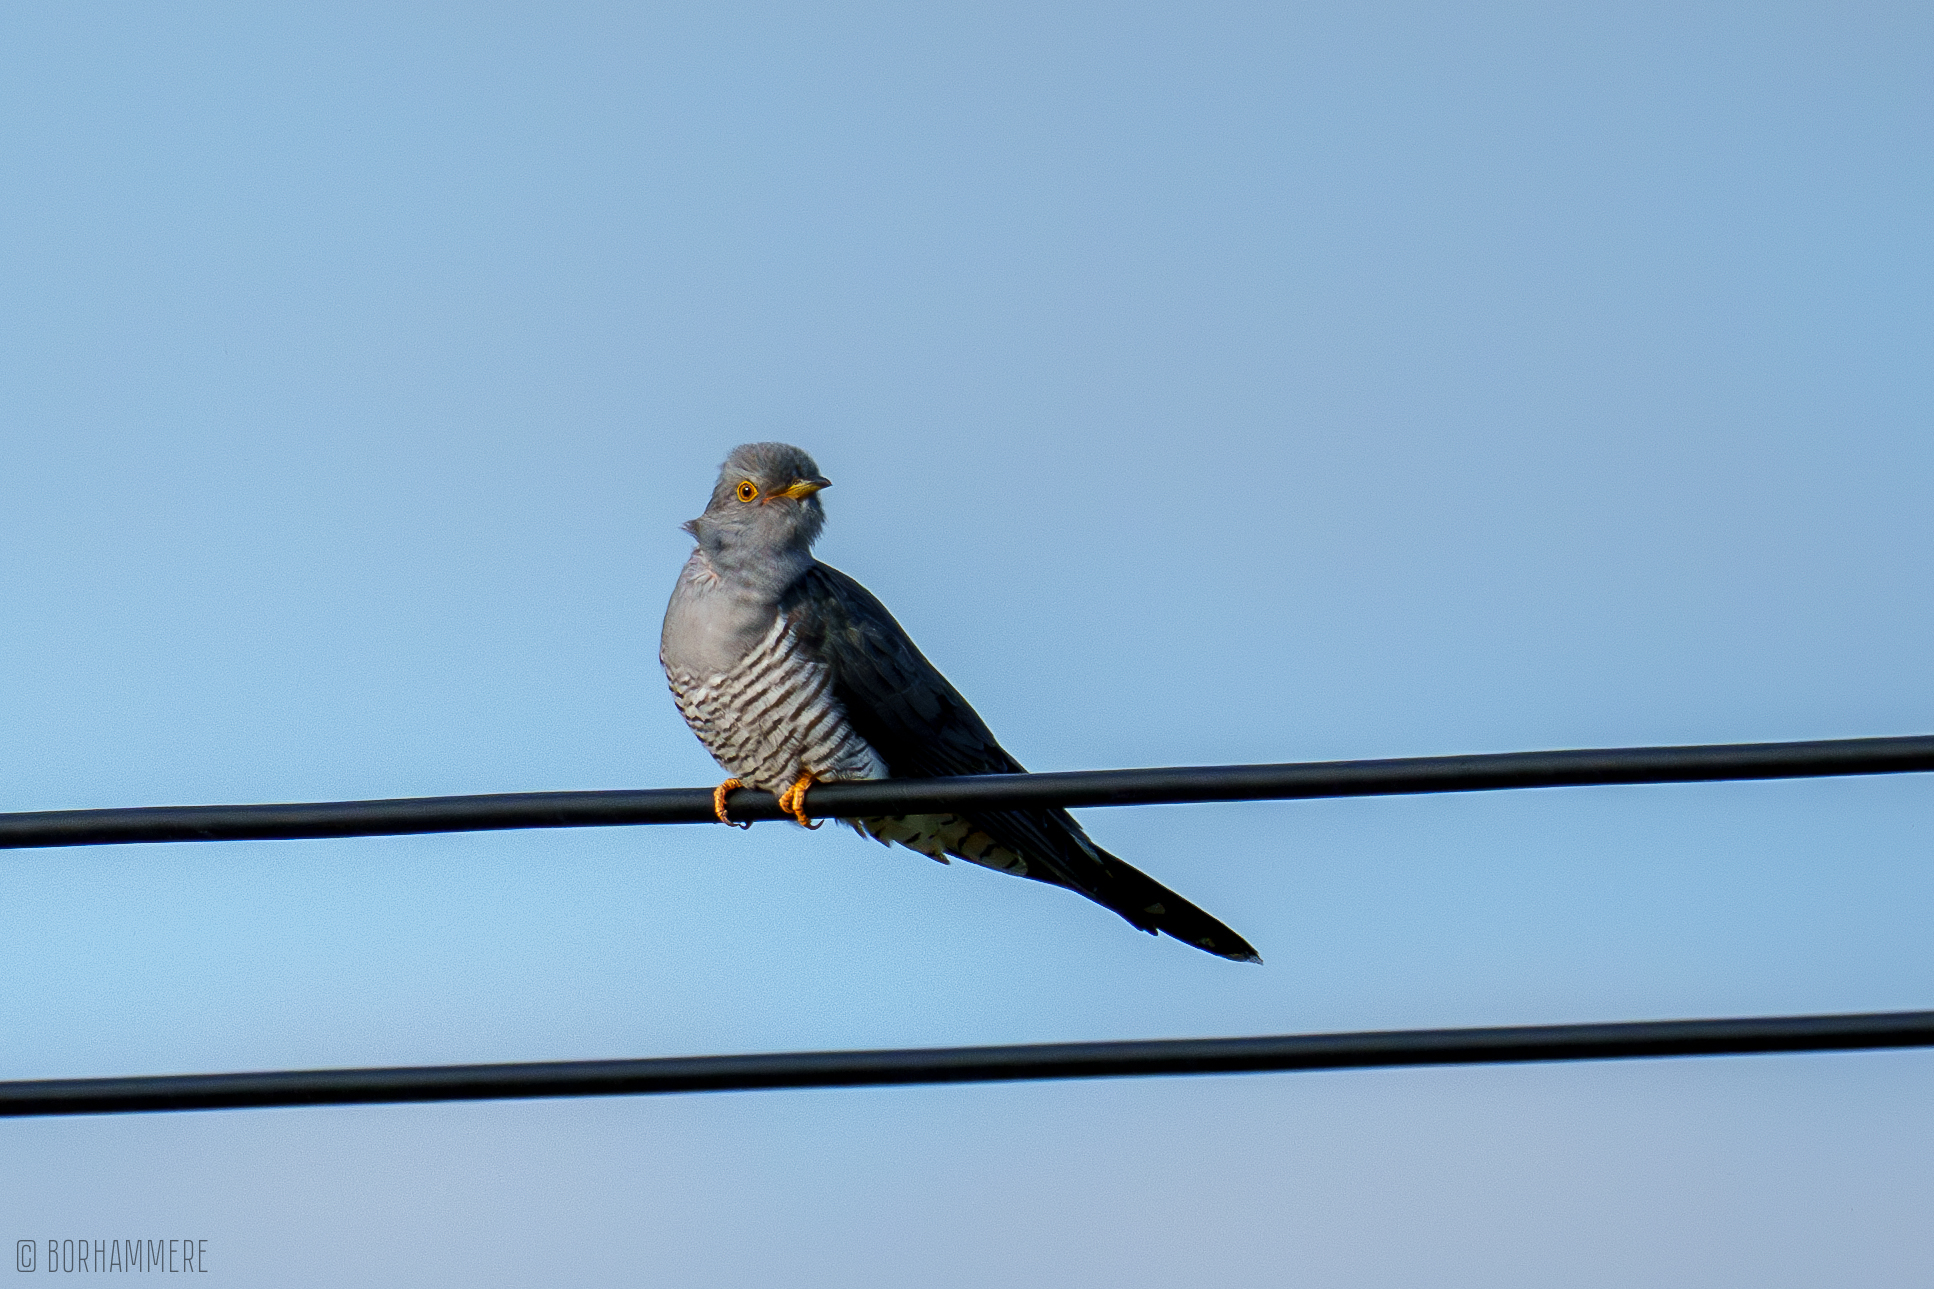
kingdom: Animalia
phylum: Chordata
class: Aves
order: Cuculiformes
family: Cuculidae
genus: Cuculus
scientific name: Cuculus canorus
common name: Common cuckoo
